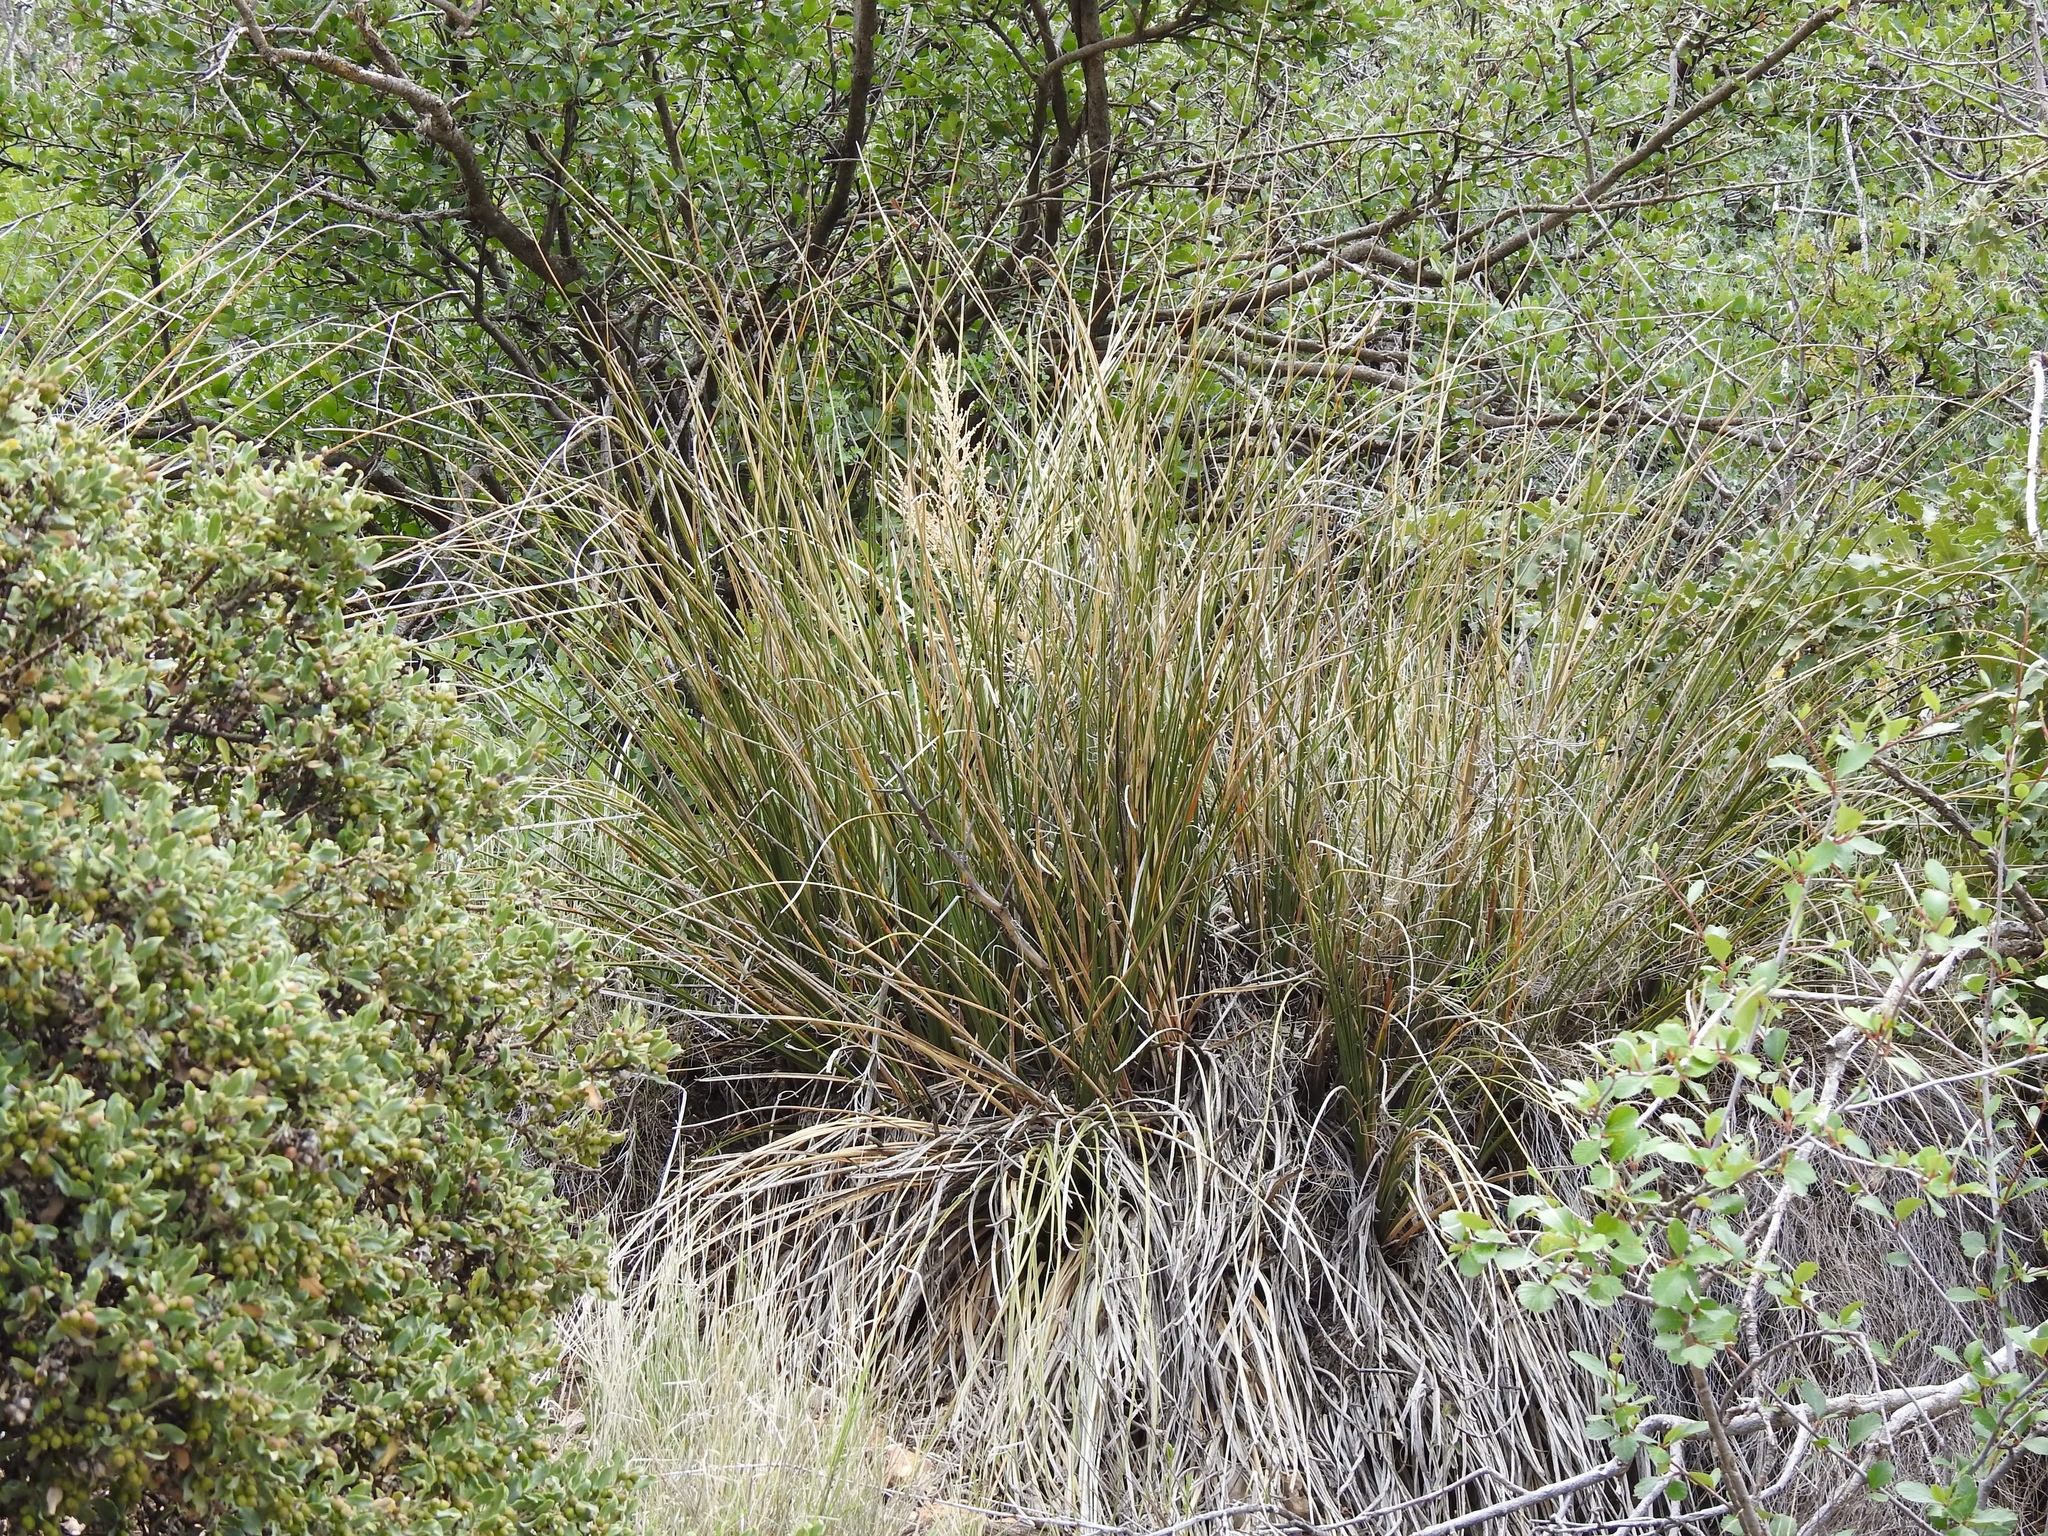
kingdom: Plantae
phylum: Tracheophyta
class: Liliopsida
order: Asparagales
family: Asparagaceae
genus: Nolina
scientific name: Nolina microcarpa
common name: Bear-grass
